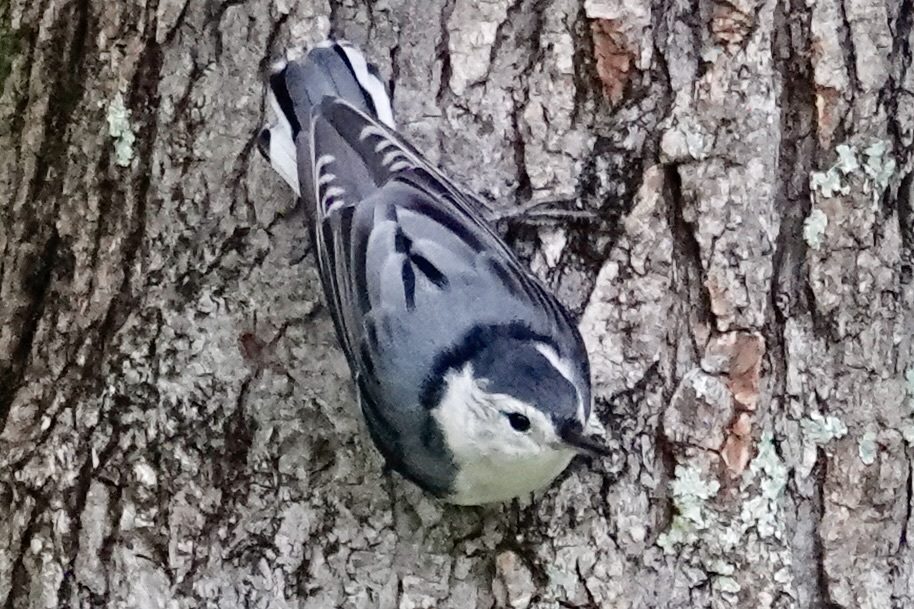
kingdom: Animalia
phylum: Chordata
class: Aves
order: Passeriformes
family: Sittidae
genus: Sitta
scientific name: Sitta carolinensis
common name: White-breasted nuthatch
